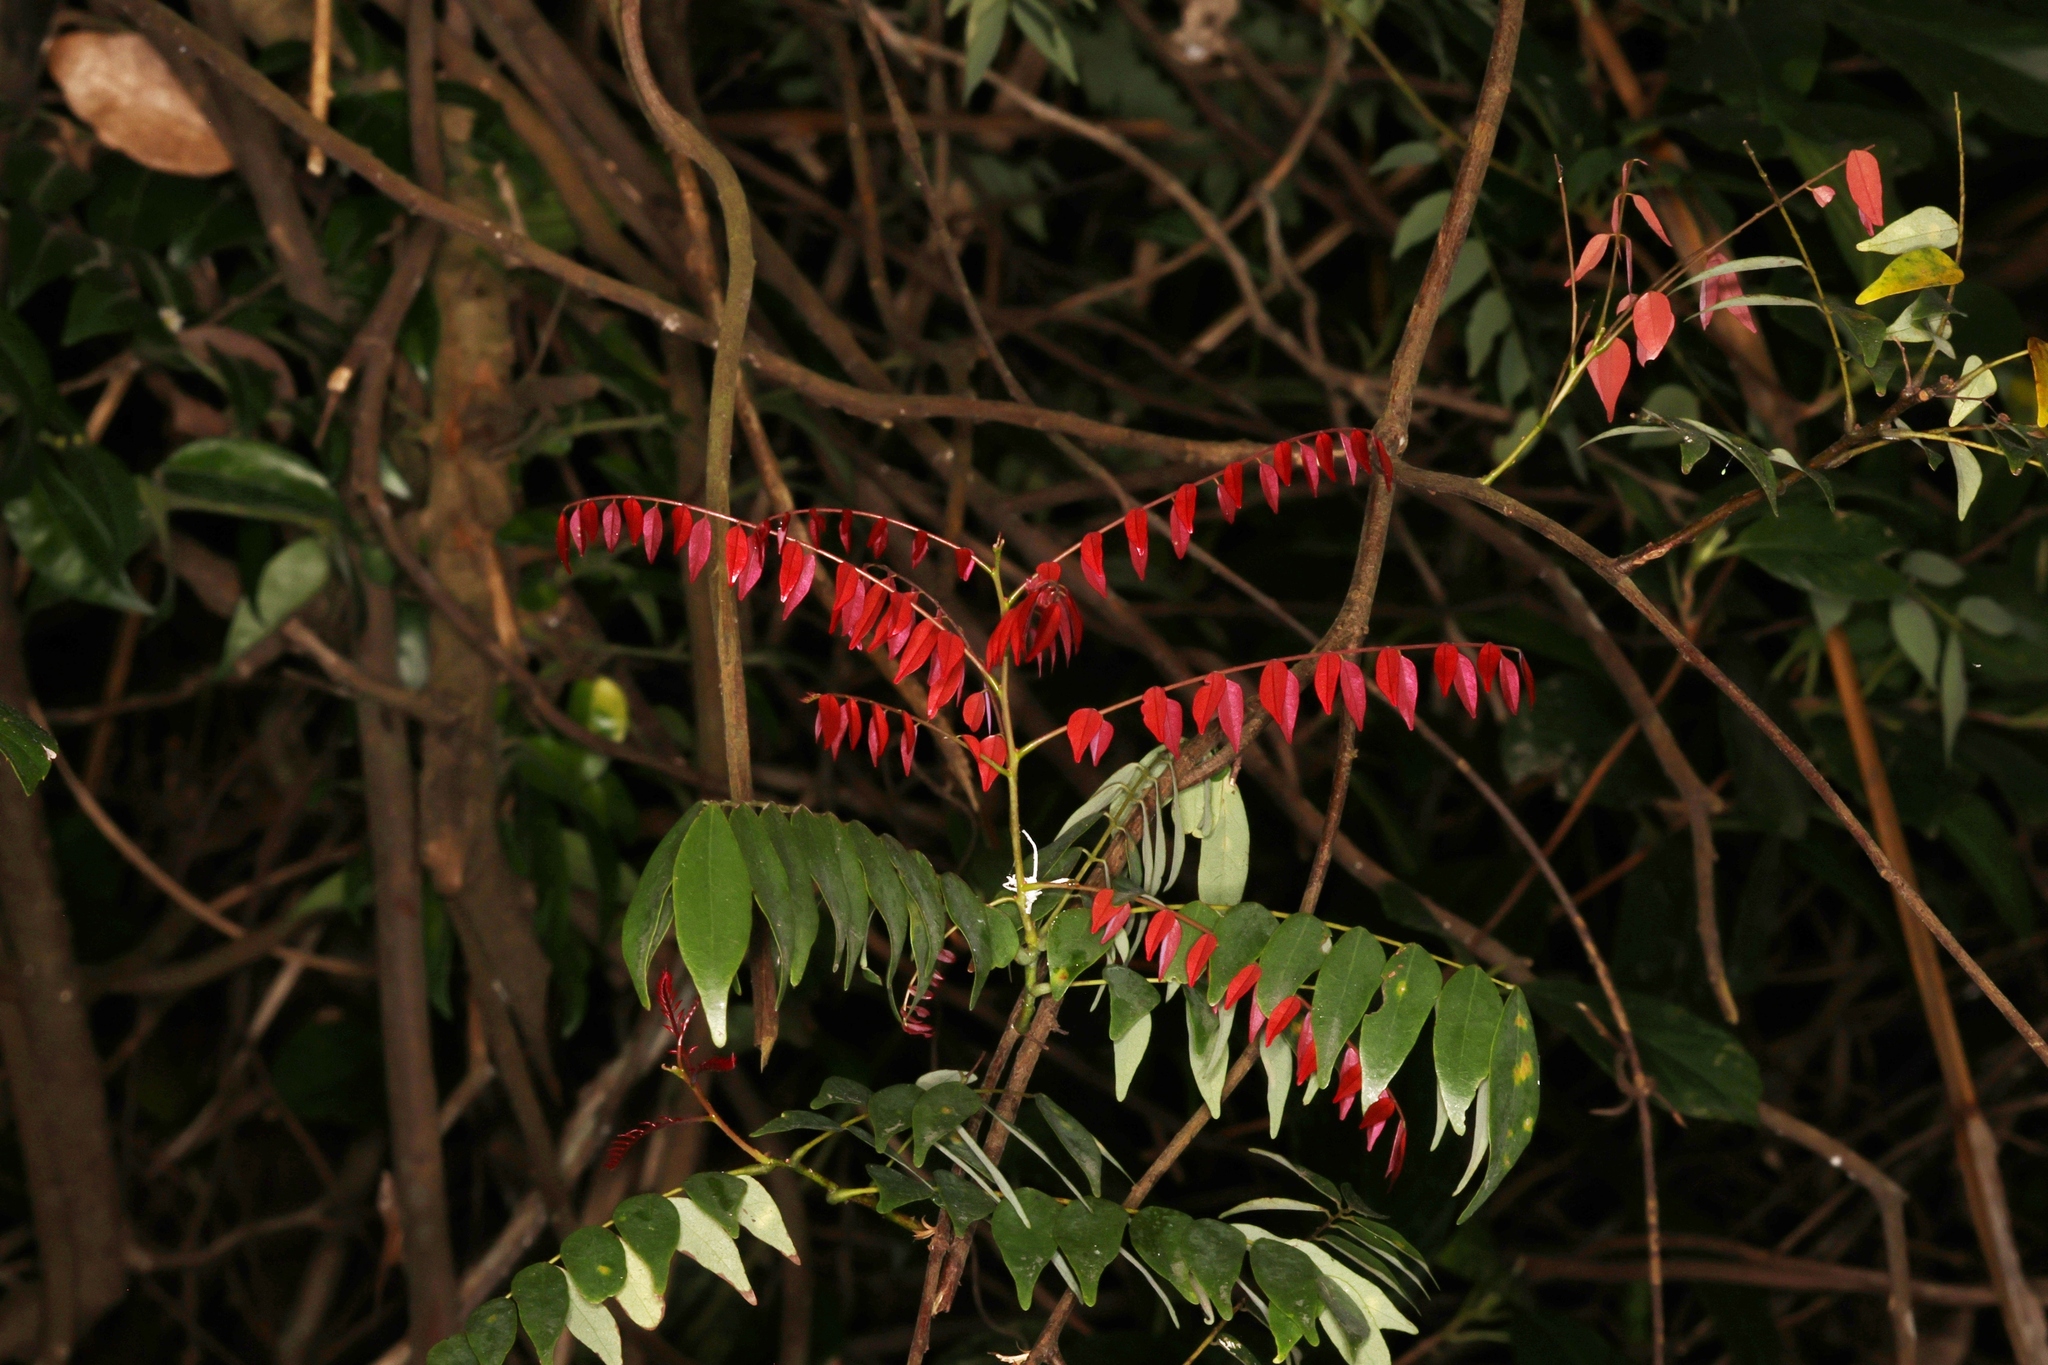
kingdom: Plantae
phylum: Tracheophyta
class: Magnoliopsida
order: Oxalidales
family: Connaraceae
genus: Rourea
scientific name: Rourea microphylla
